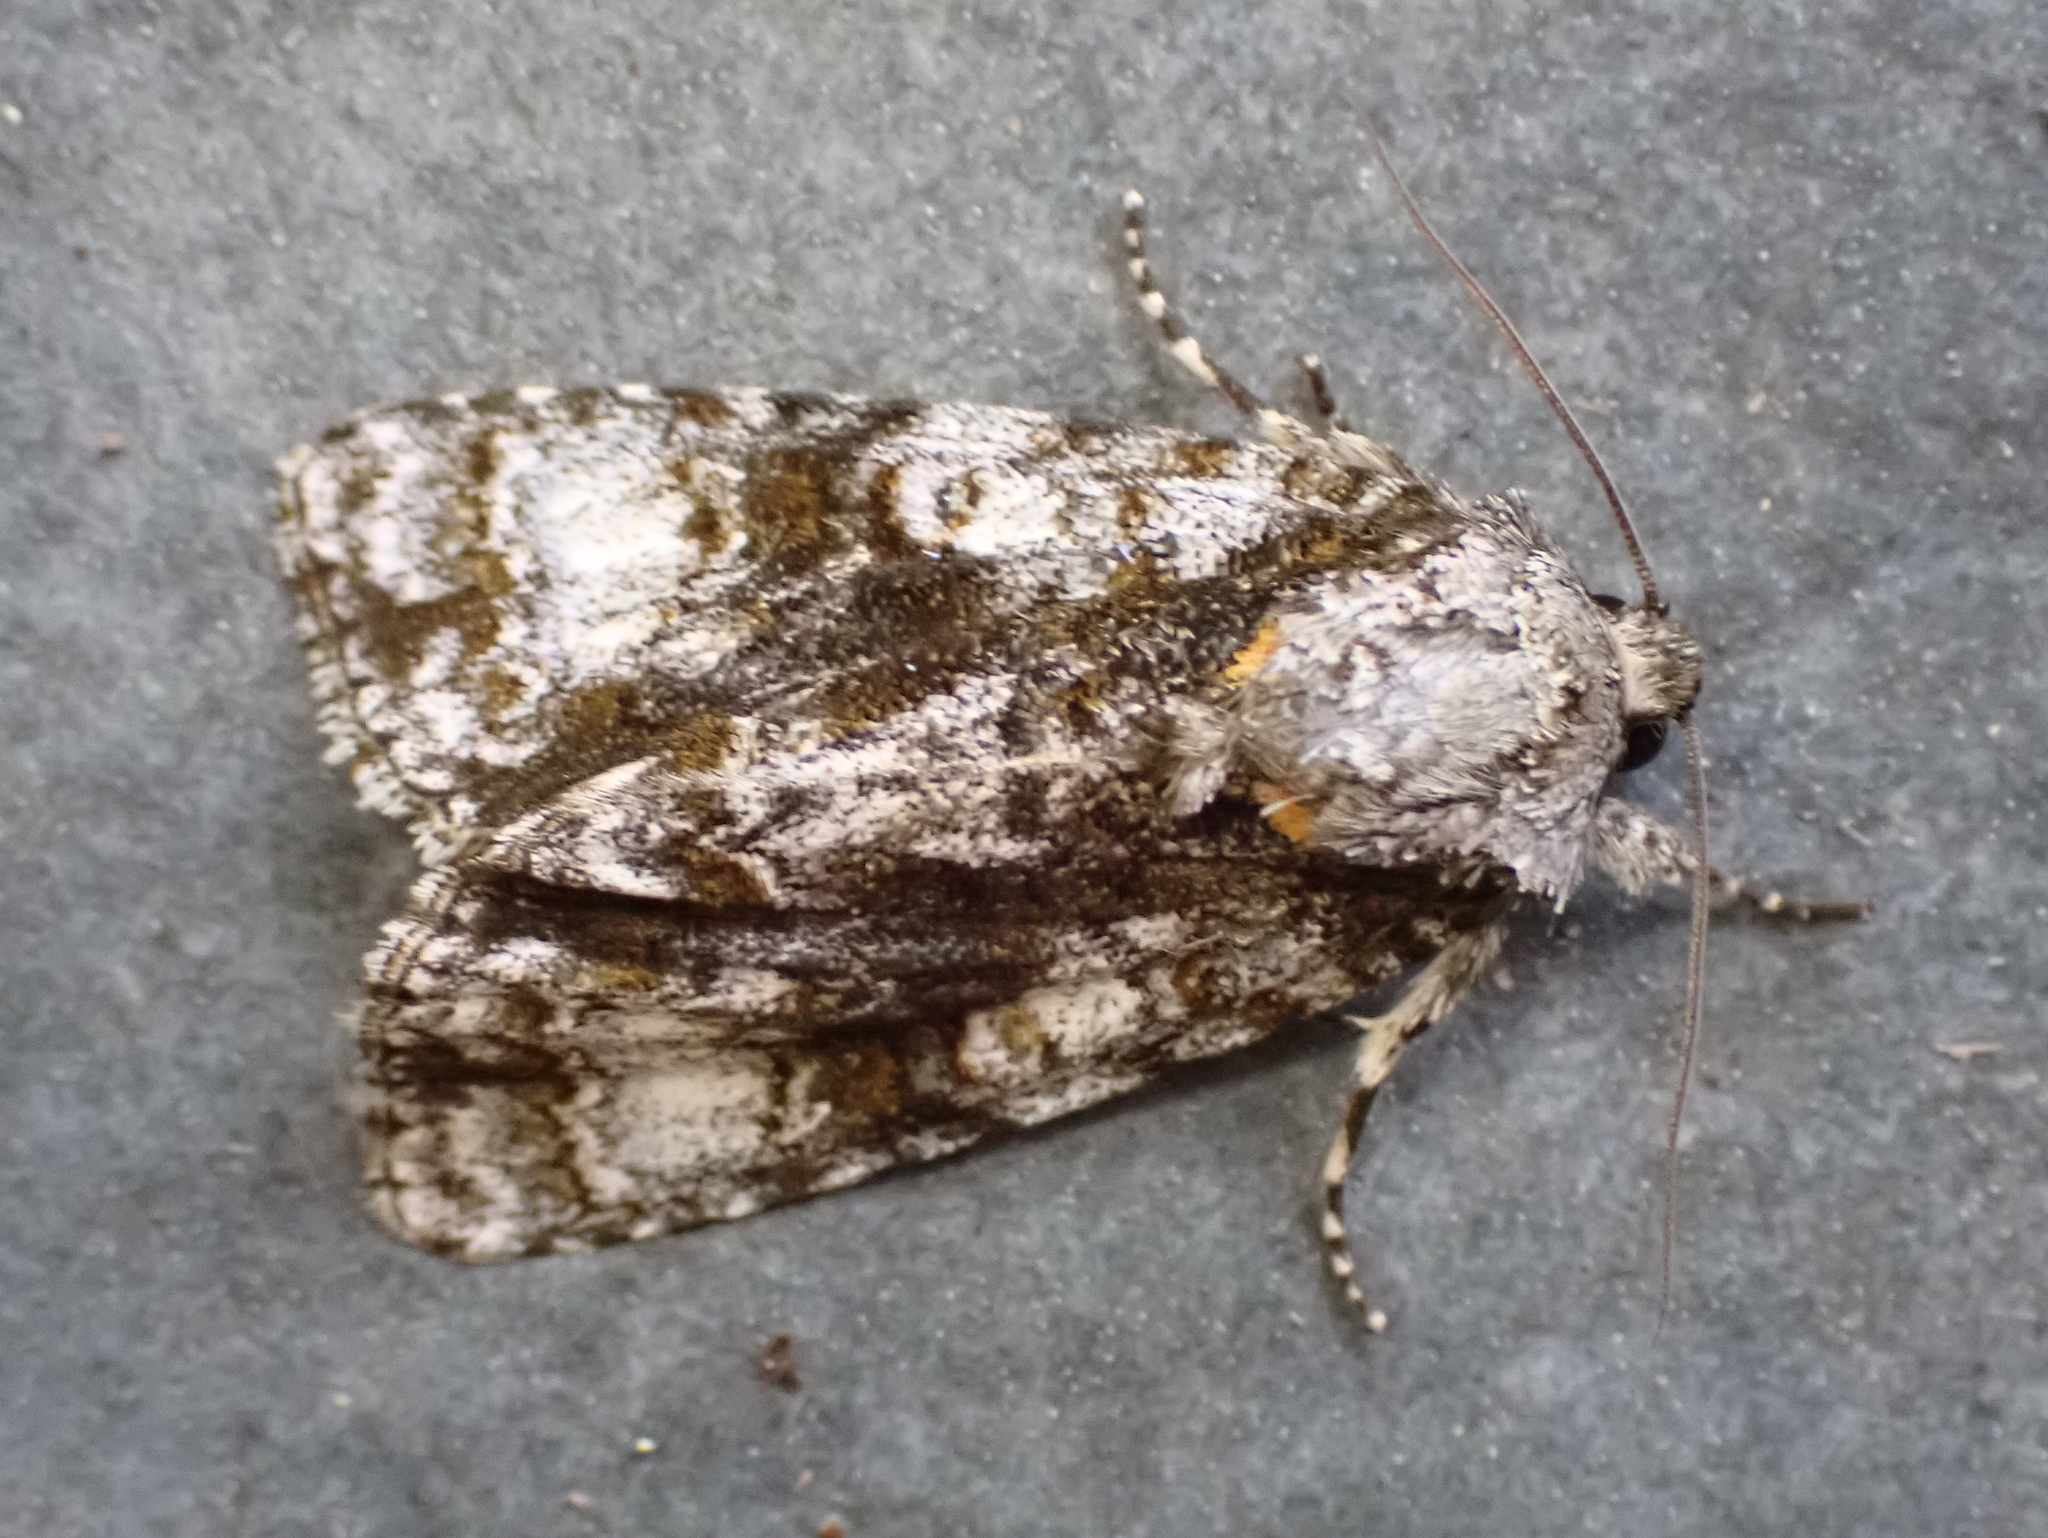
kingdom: Animalia
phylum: Arthropoda
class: Insecta
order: Lepidoptera
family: Noctuidae
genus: Acronicta
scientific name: Acronicta superans
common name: Splendid dagger
